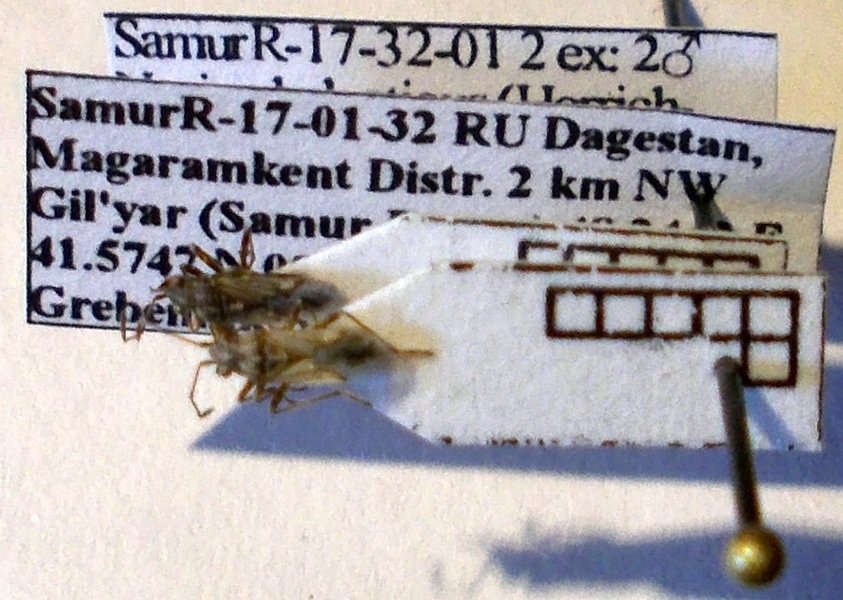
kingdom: Animalia
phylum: Arthropoda
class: Insecta
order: Hemiptera
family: Lygaeidae
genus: Nysius
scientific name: Nysius helveticus
